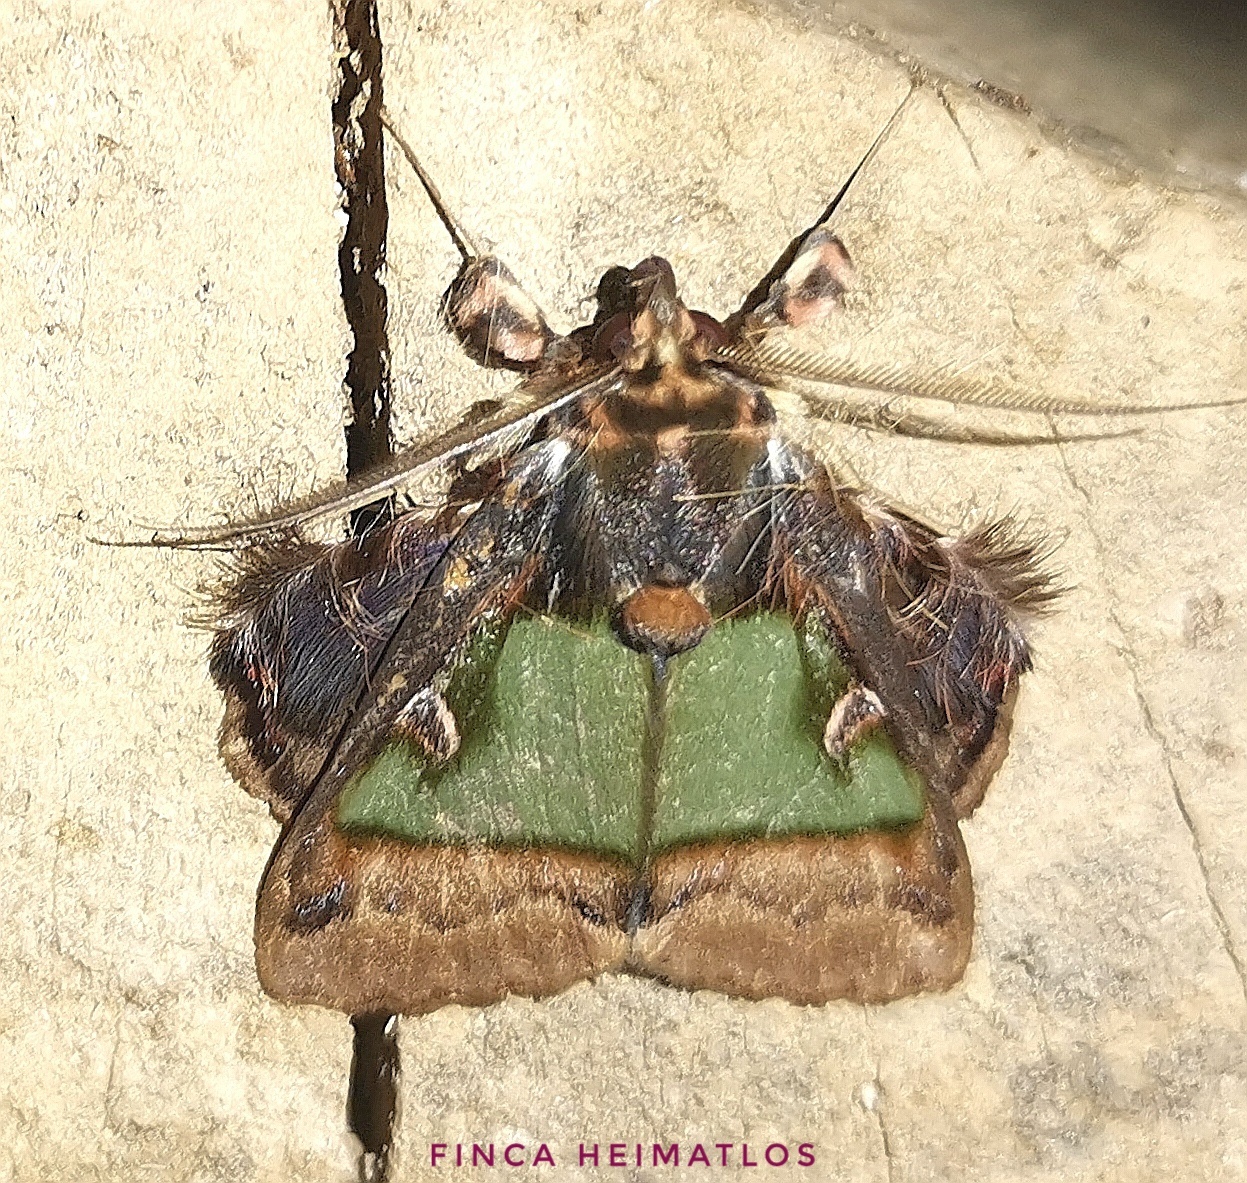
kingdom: Animalia
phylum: Arthropoda
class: Insecta
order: Lepidoptera
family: Erebidae
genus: Ceroctena
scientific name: Ceroctena amynta
